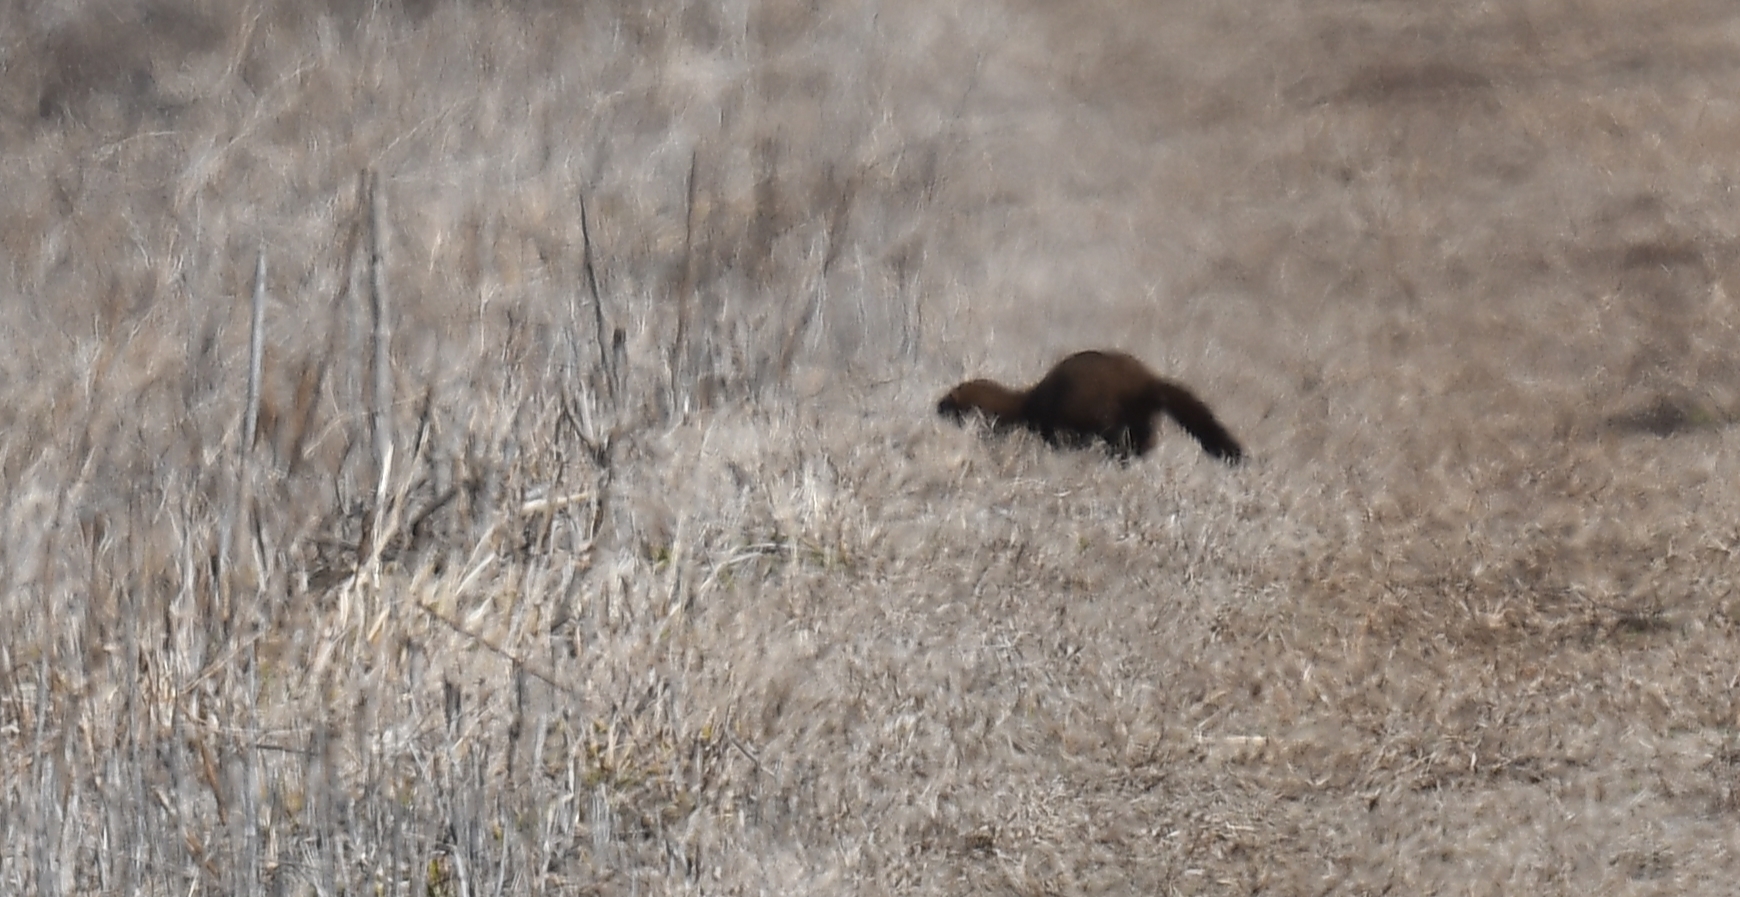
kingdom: Animalia
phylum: Chordata
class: Mammalia
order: Carnivora
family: Mustelidae
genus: Mustela
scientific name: Mustela
